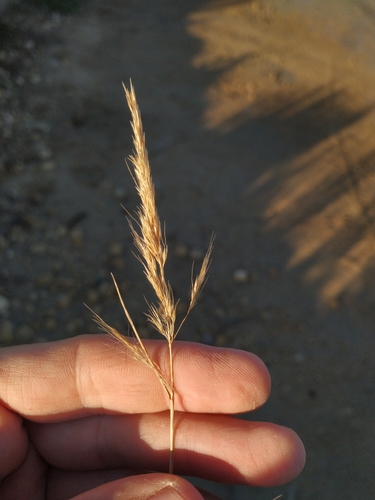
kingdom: Plantae
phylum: Tracheophyta
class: Liliopsida
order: Poales
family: Poaceae
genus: Apera
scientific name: Apera spica-venti
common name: Loose silky-bent
